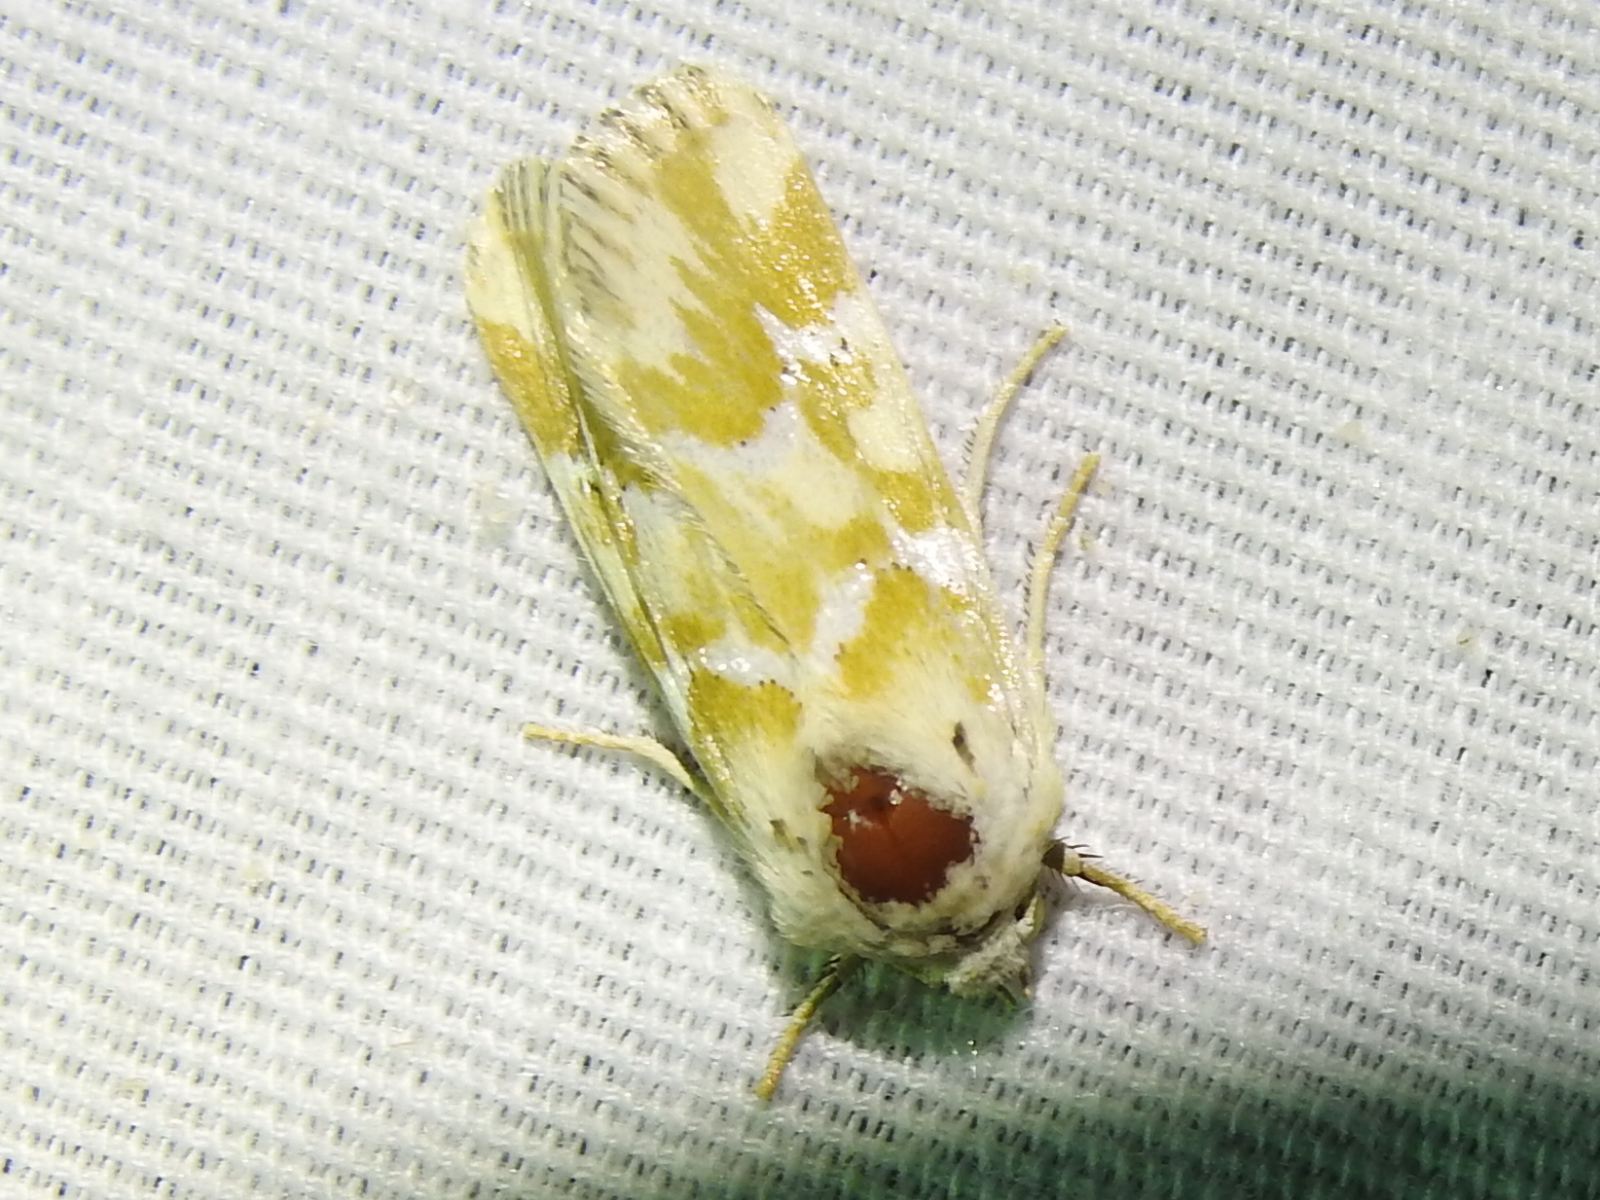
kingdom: Animalia
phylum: Arthropoda
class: Insecta
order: Lepidoptera
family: Noctuidae
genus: Schinia
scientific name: Schinia meadi
